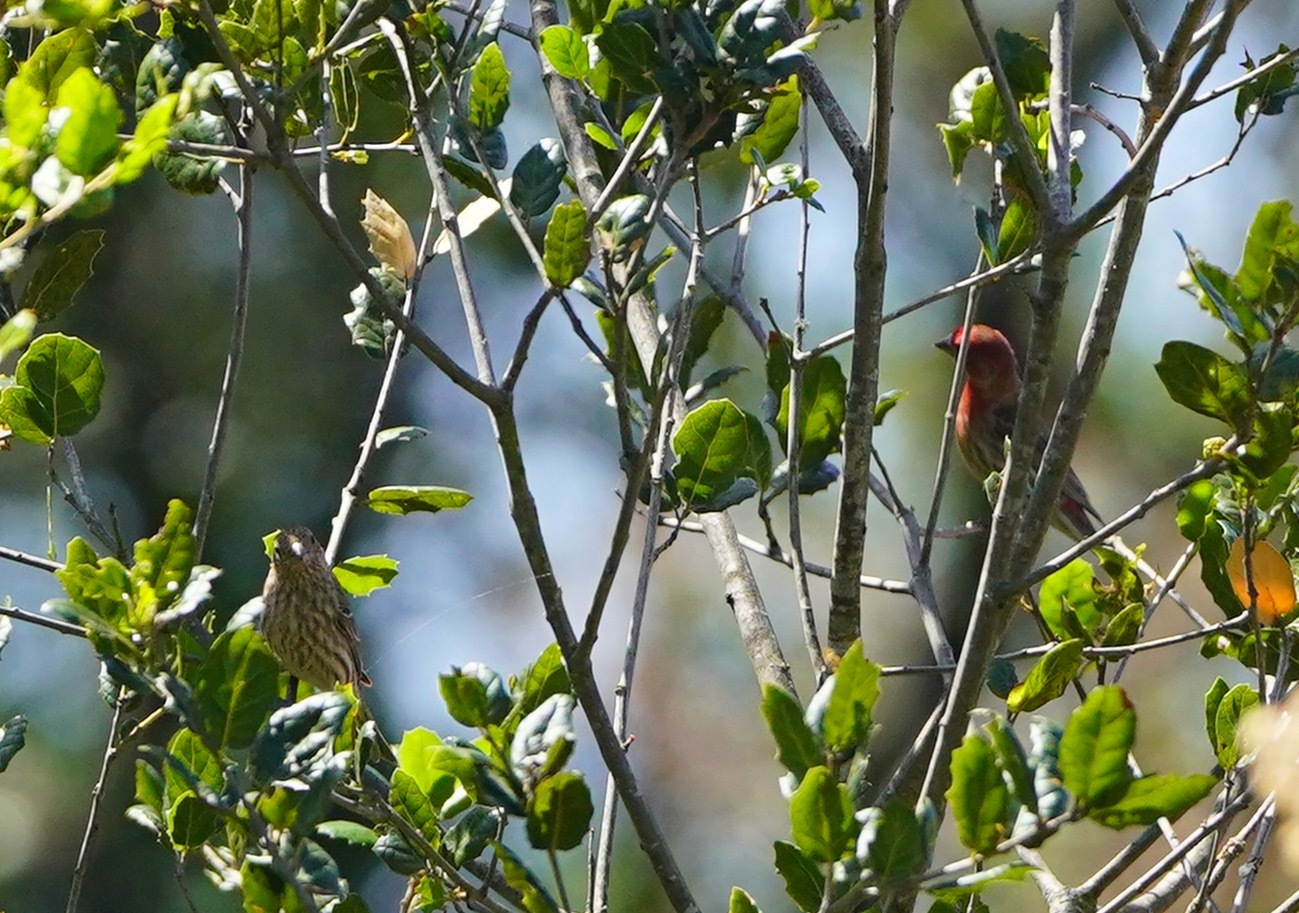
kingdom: Animalia
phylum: Chordata
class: Aves
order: Passeriformes
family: Fringillidae
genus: Haemorhous
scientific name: Haemorhous mexicanus
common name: House finch
